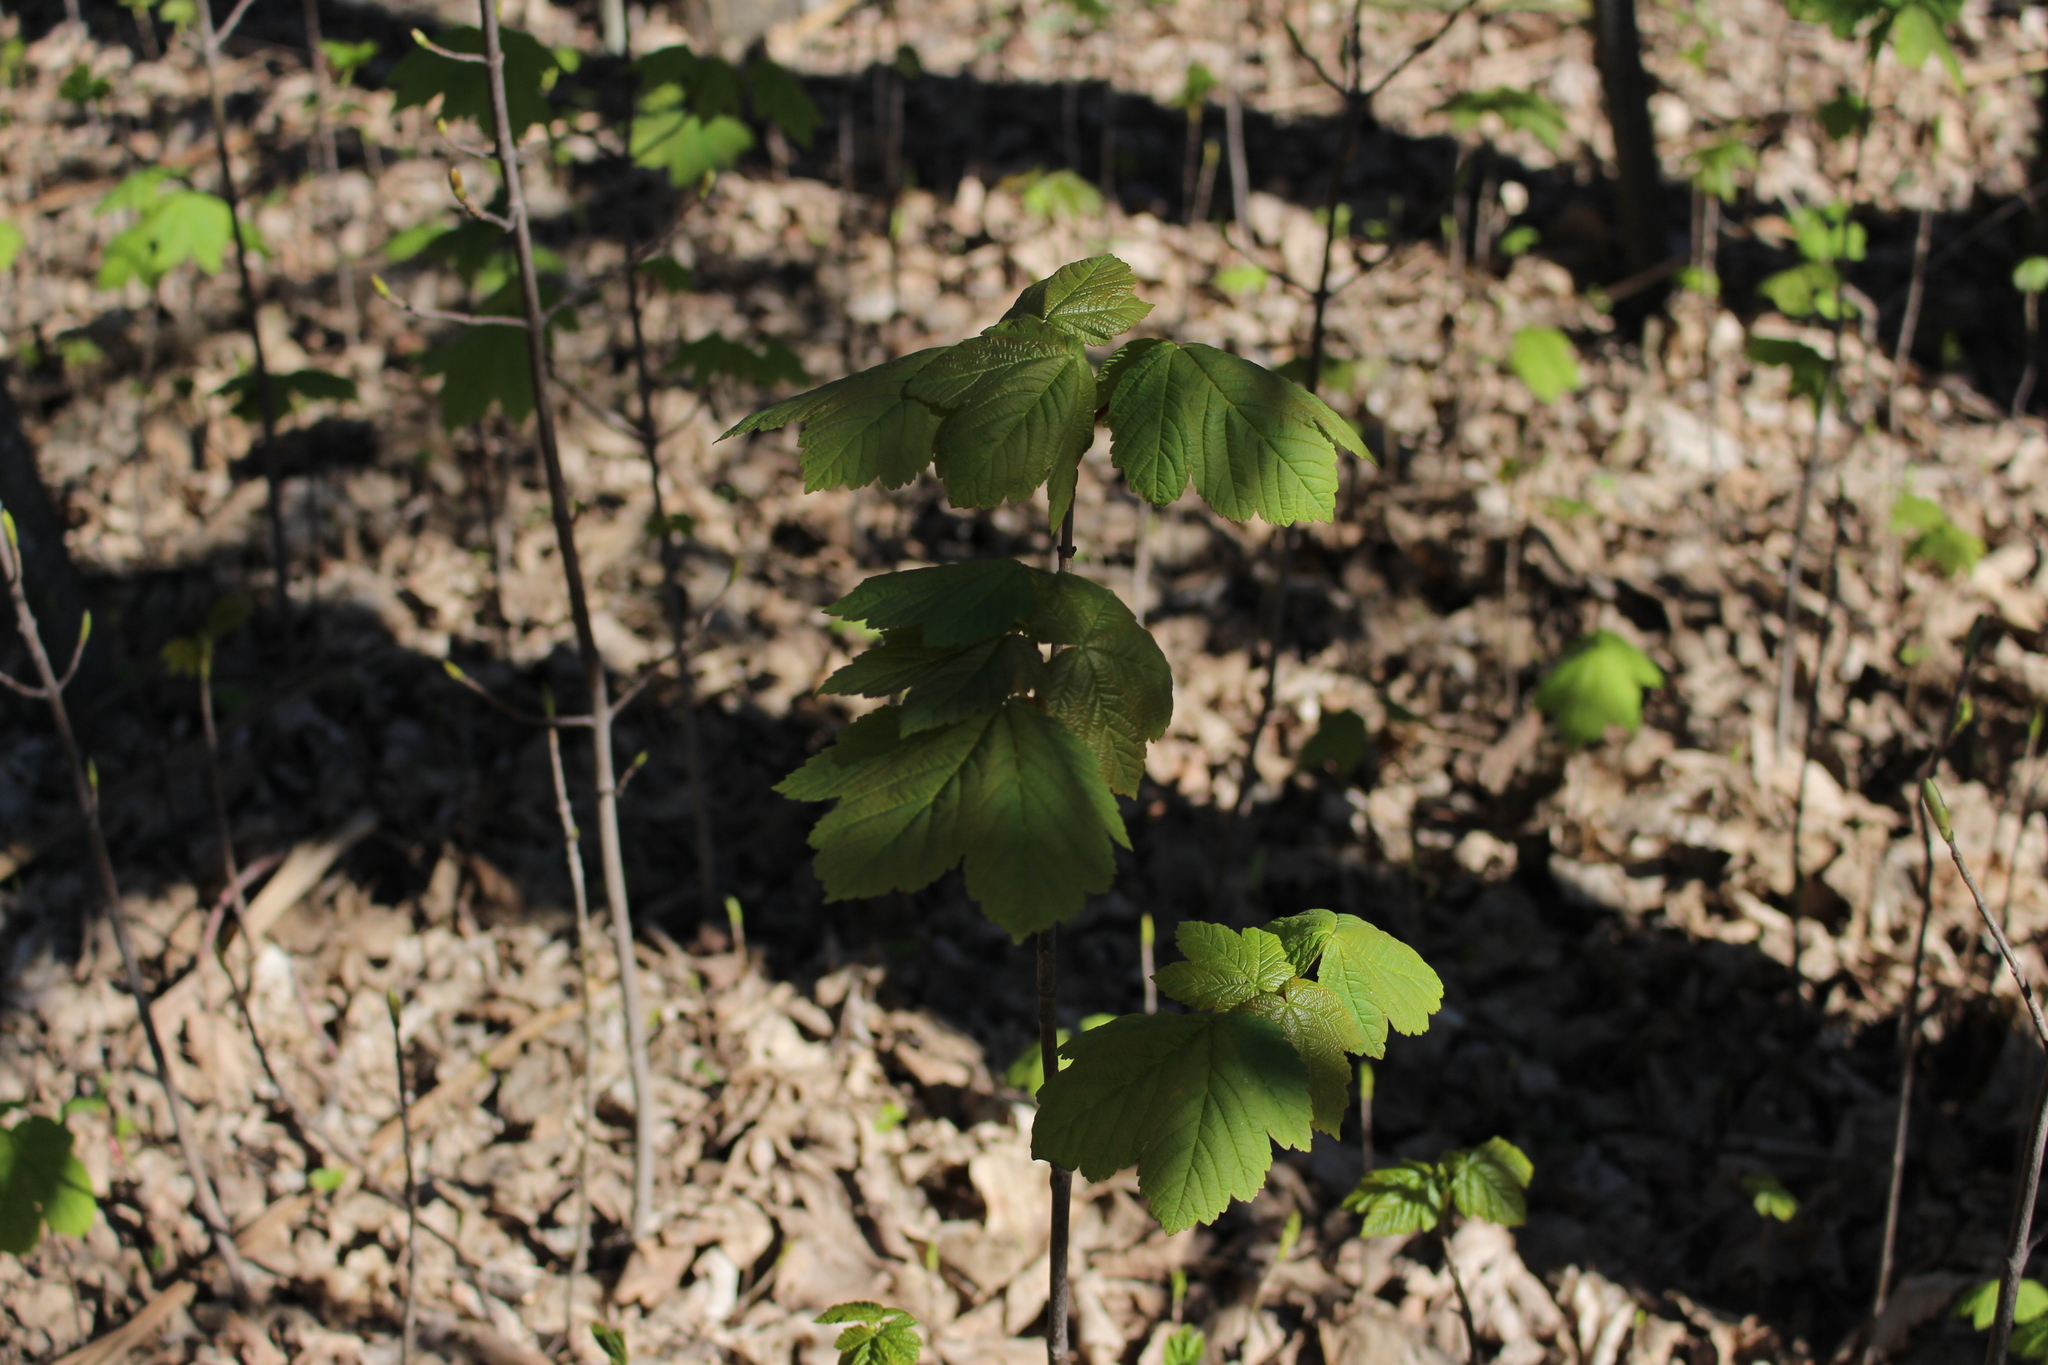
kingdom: Plantae
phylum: Tracheophyta
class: Magnoliopsida
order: Sapindales
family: Sapindaceae
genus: Acer
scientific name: Acer pseudoplatanus
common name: Sycamore
